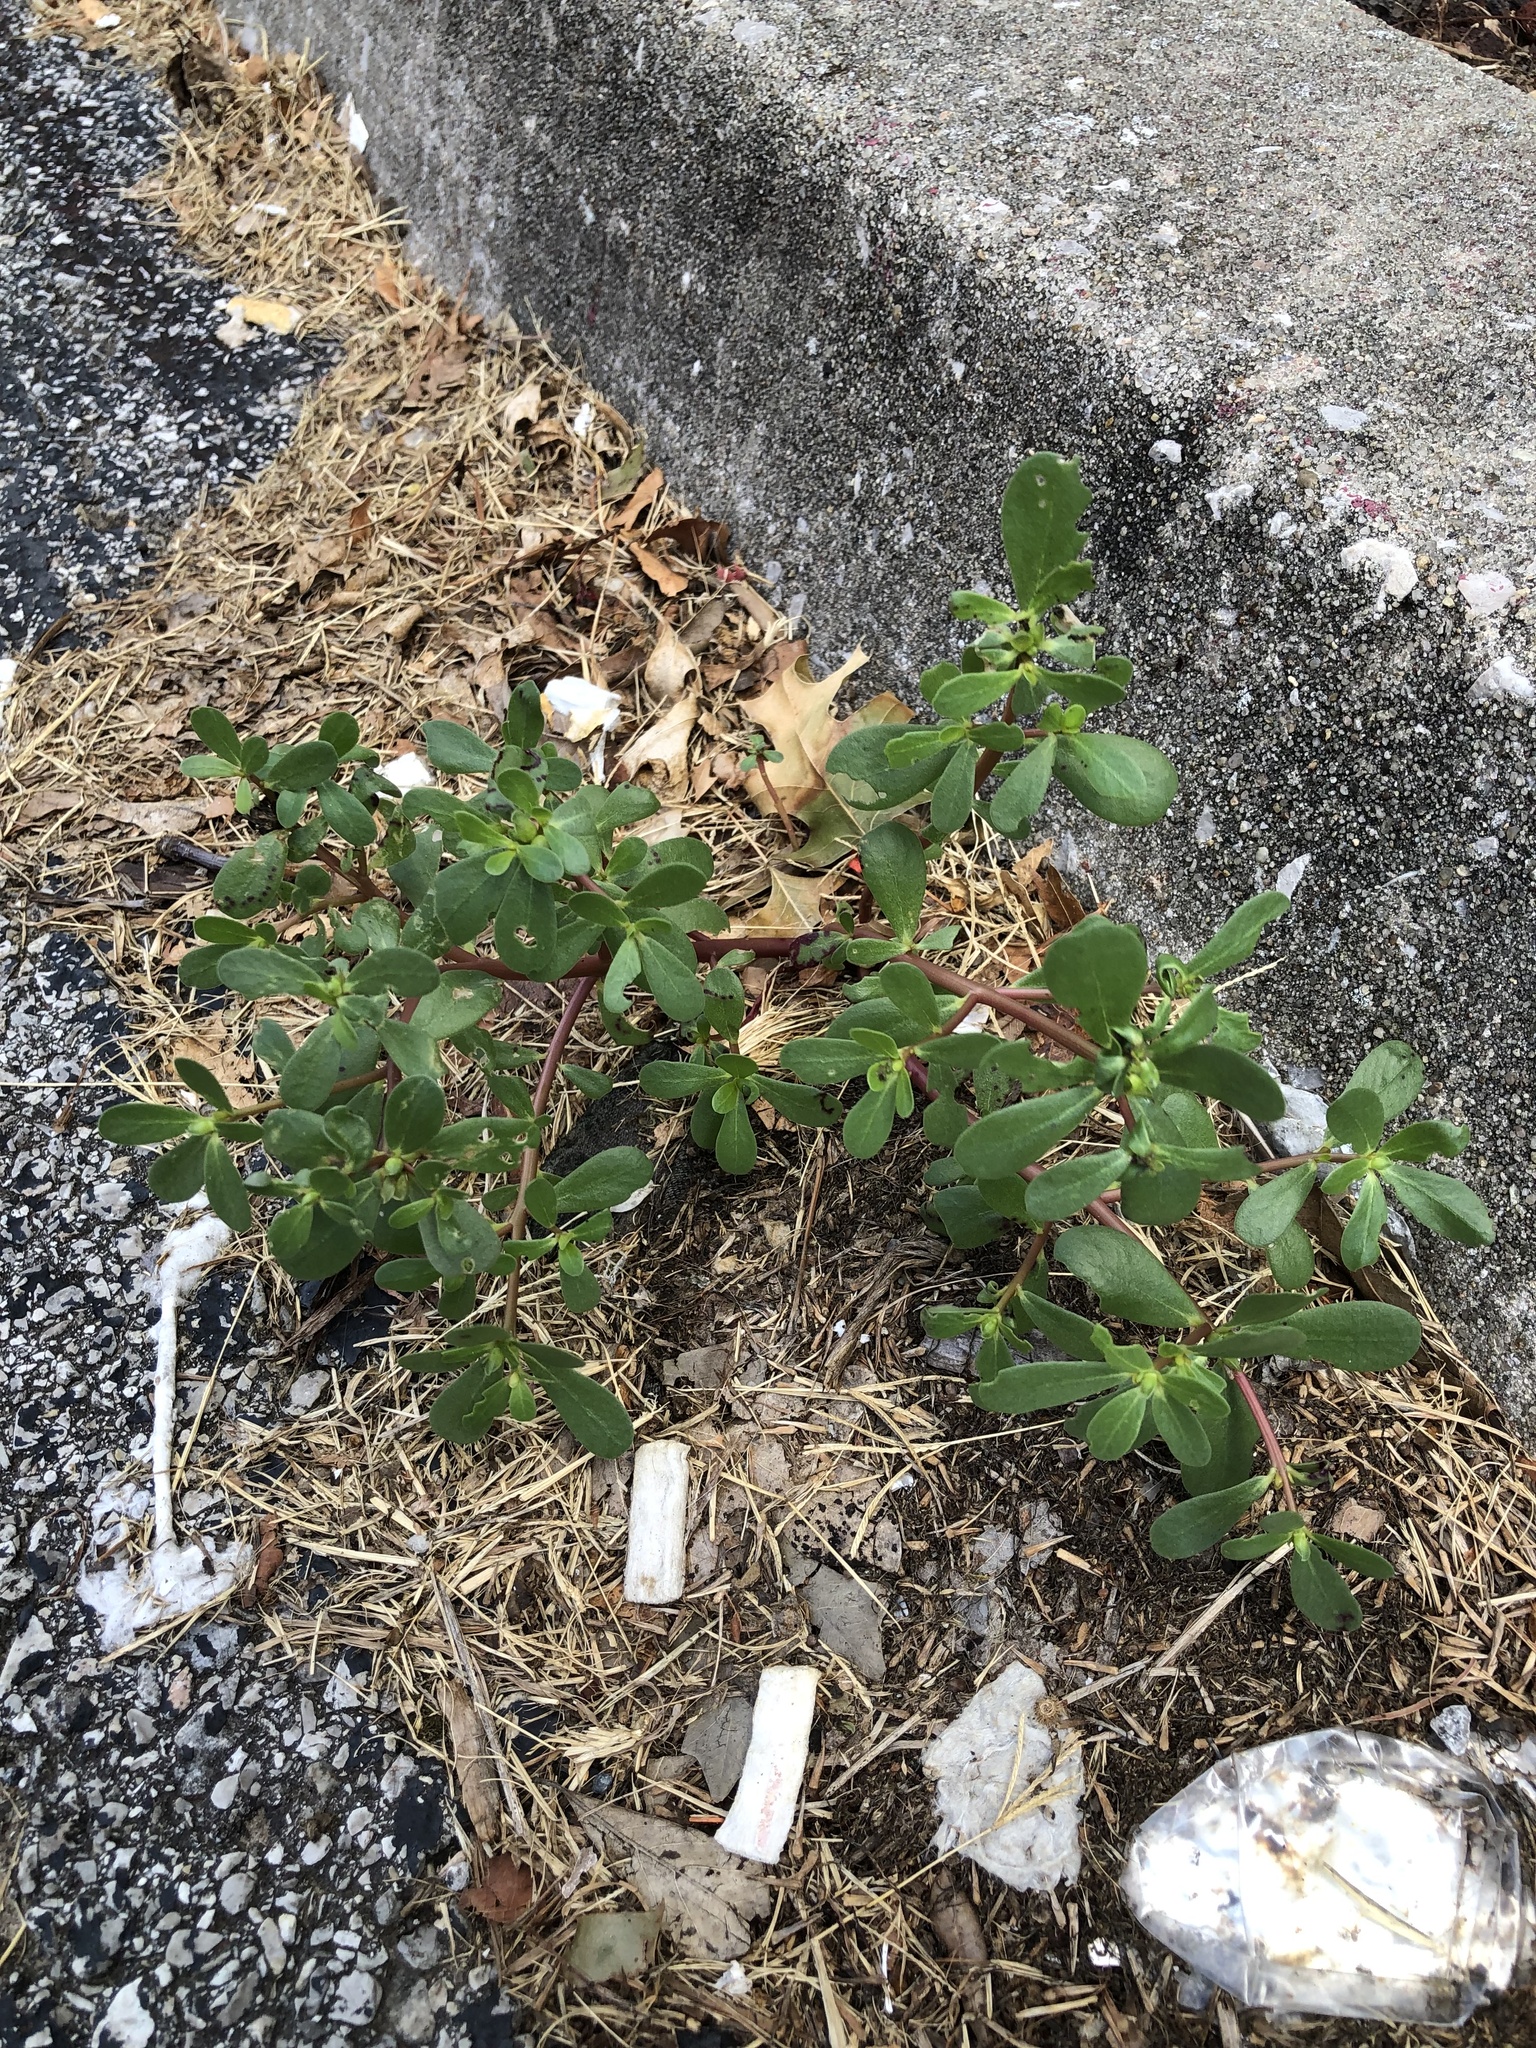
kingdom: Plantae
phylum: Tracheophyta
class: Magnoliopsida
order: Caryophyllales
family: Portulacaceae
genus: Portulaca
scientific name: Portulaca oleracea
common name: Common purslane
